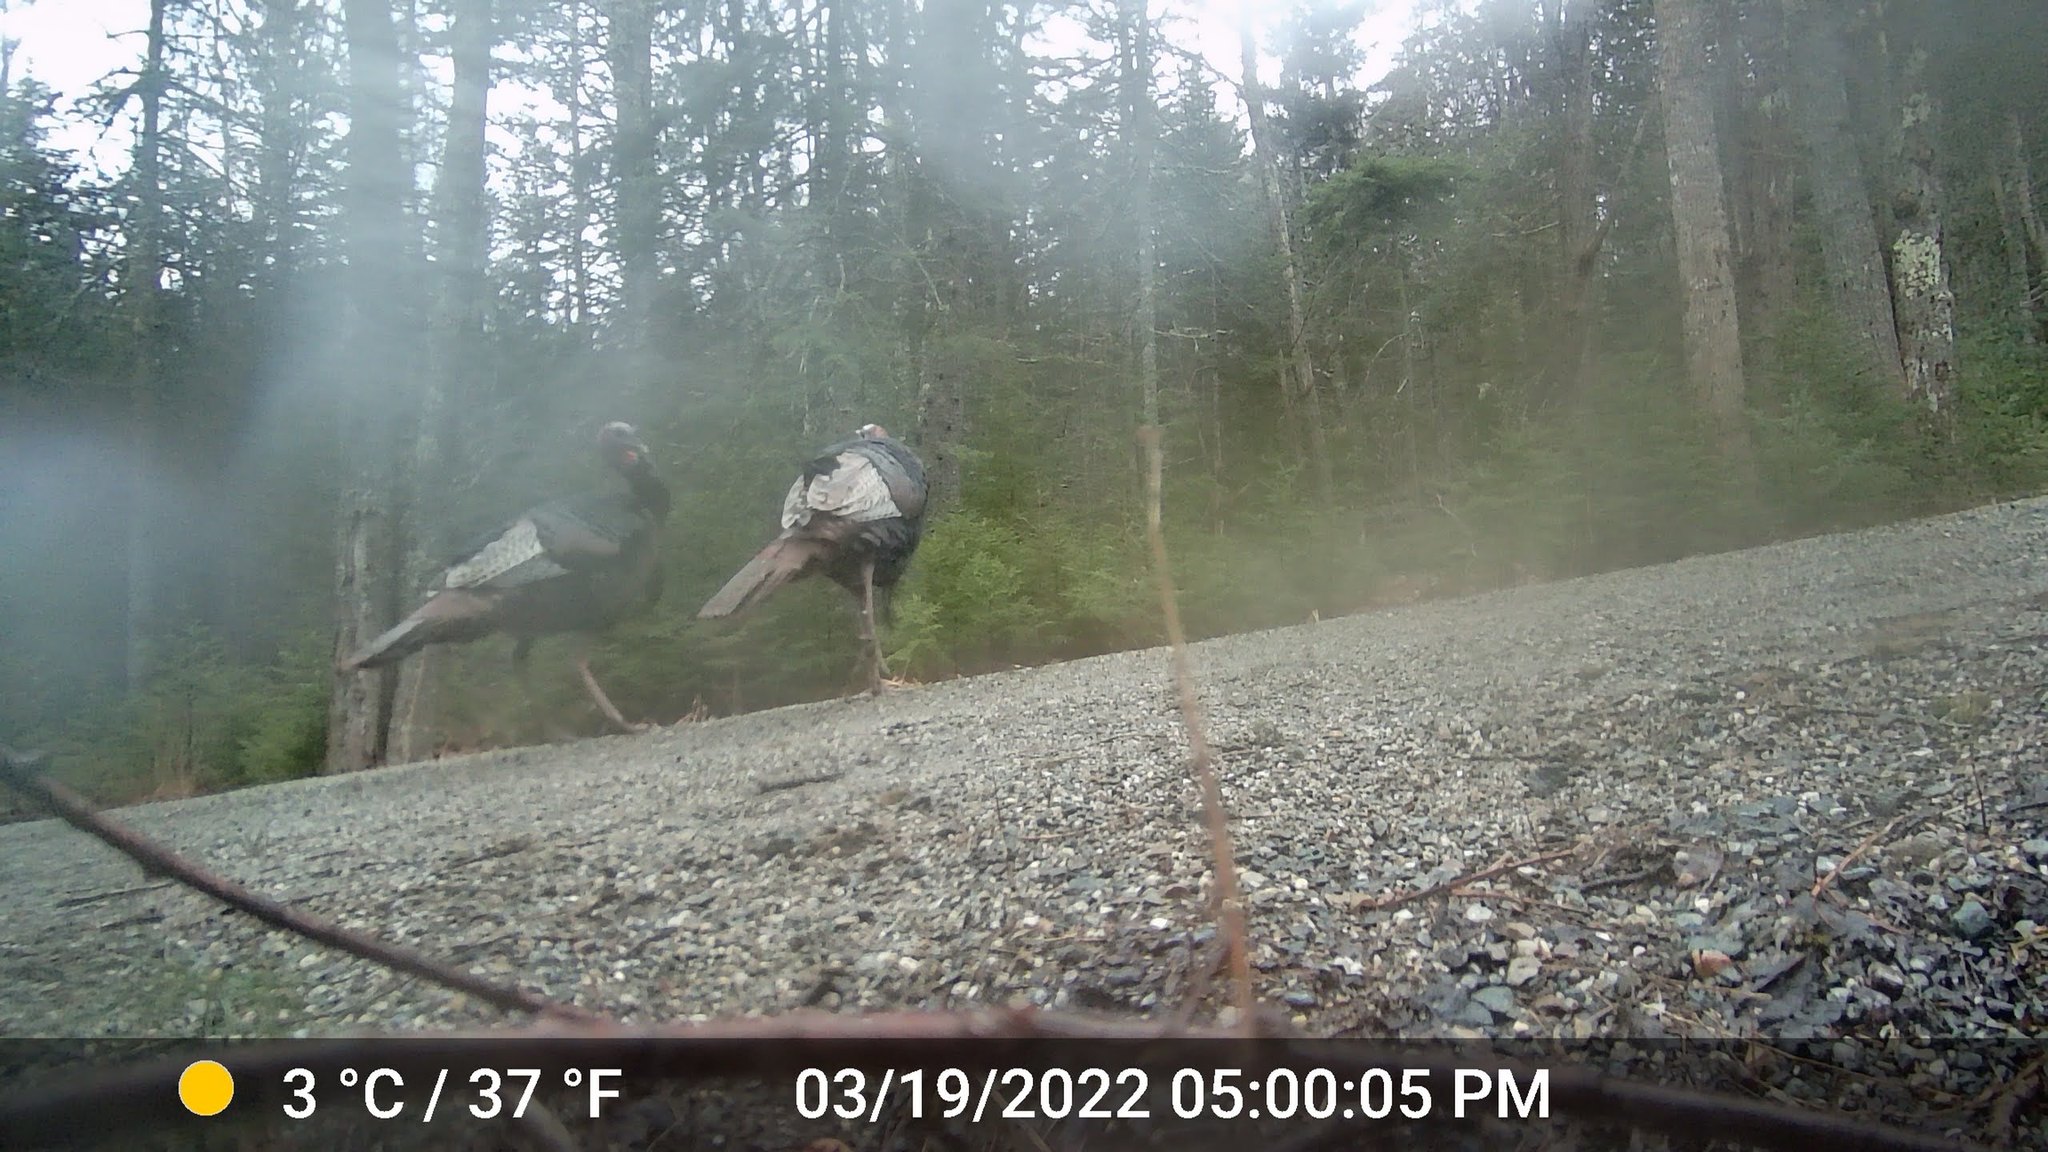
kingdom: Animalia
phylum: Chordata
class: Aves
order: Galliformes
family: Phasianidae
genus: Meleagris
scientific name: Meleagris gallopavo
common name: Wild turkey
